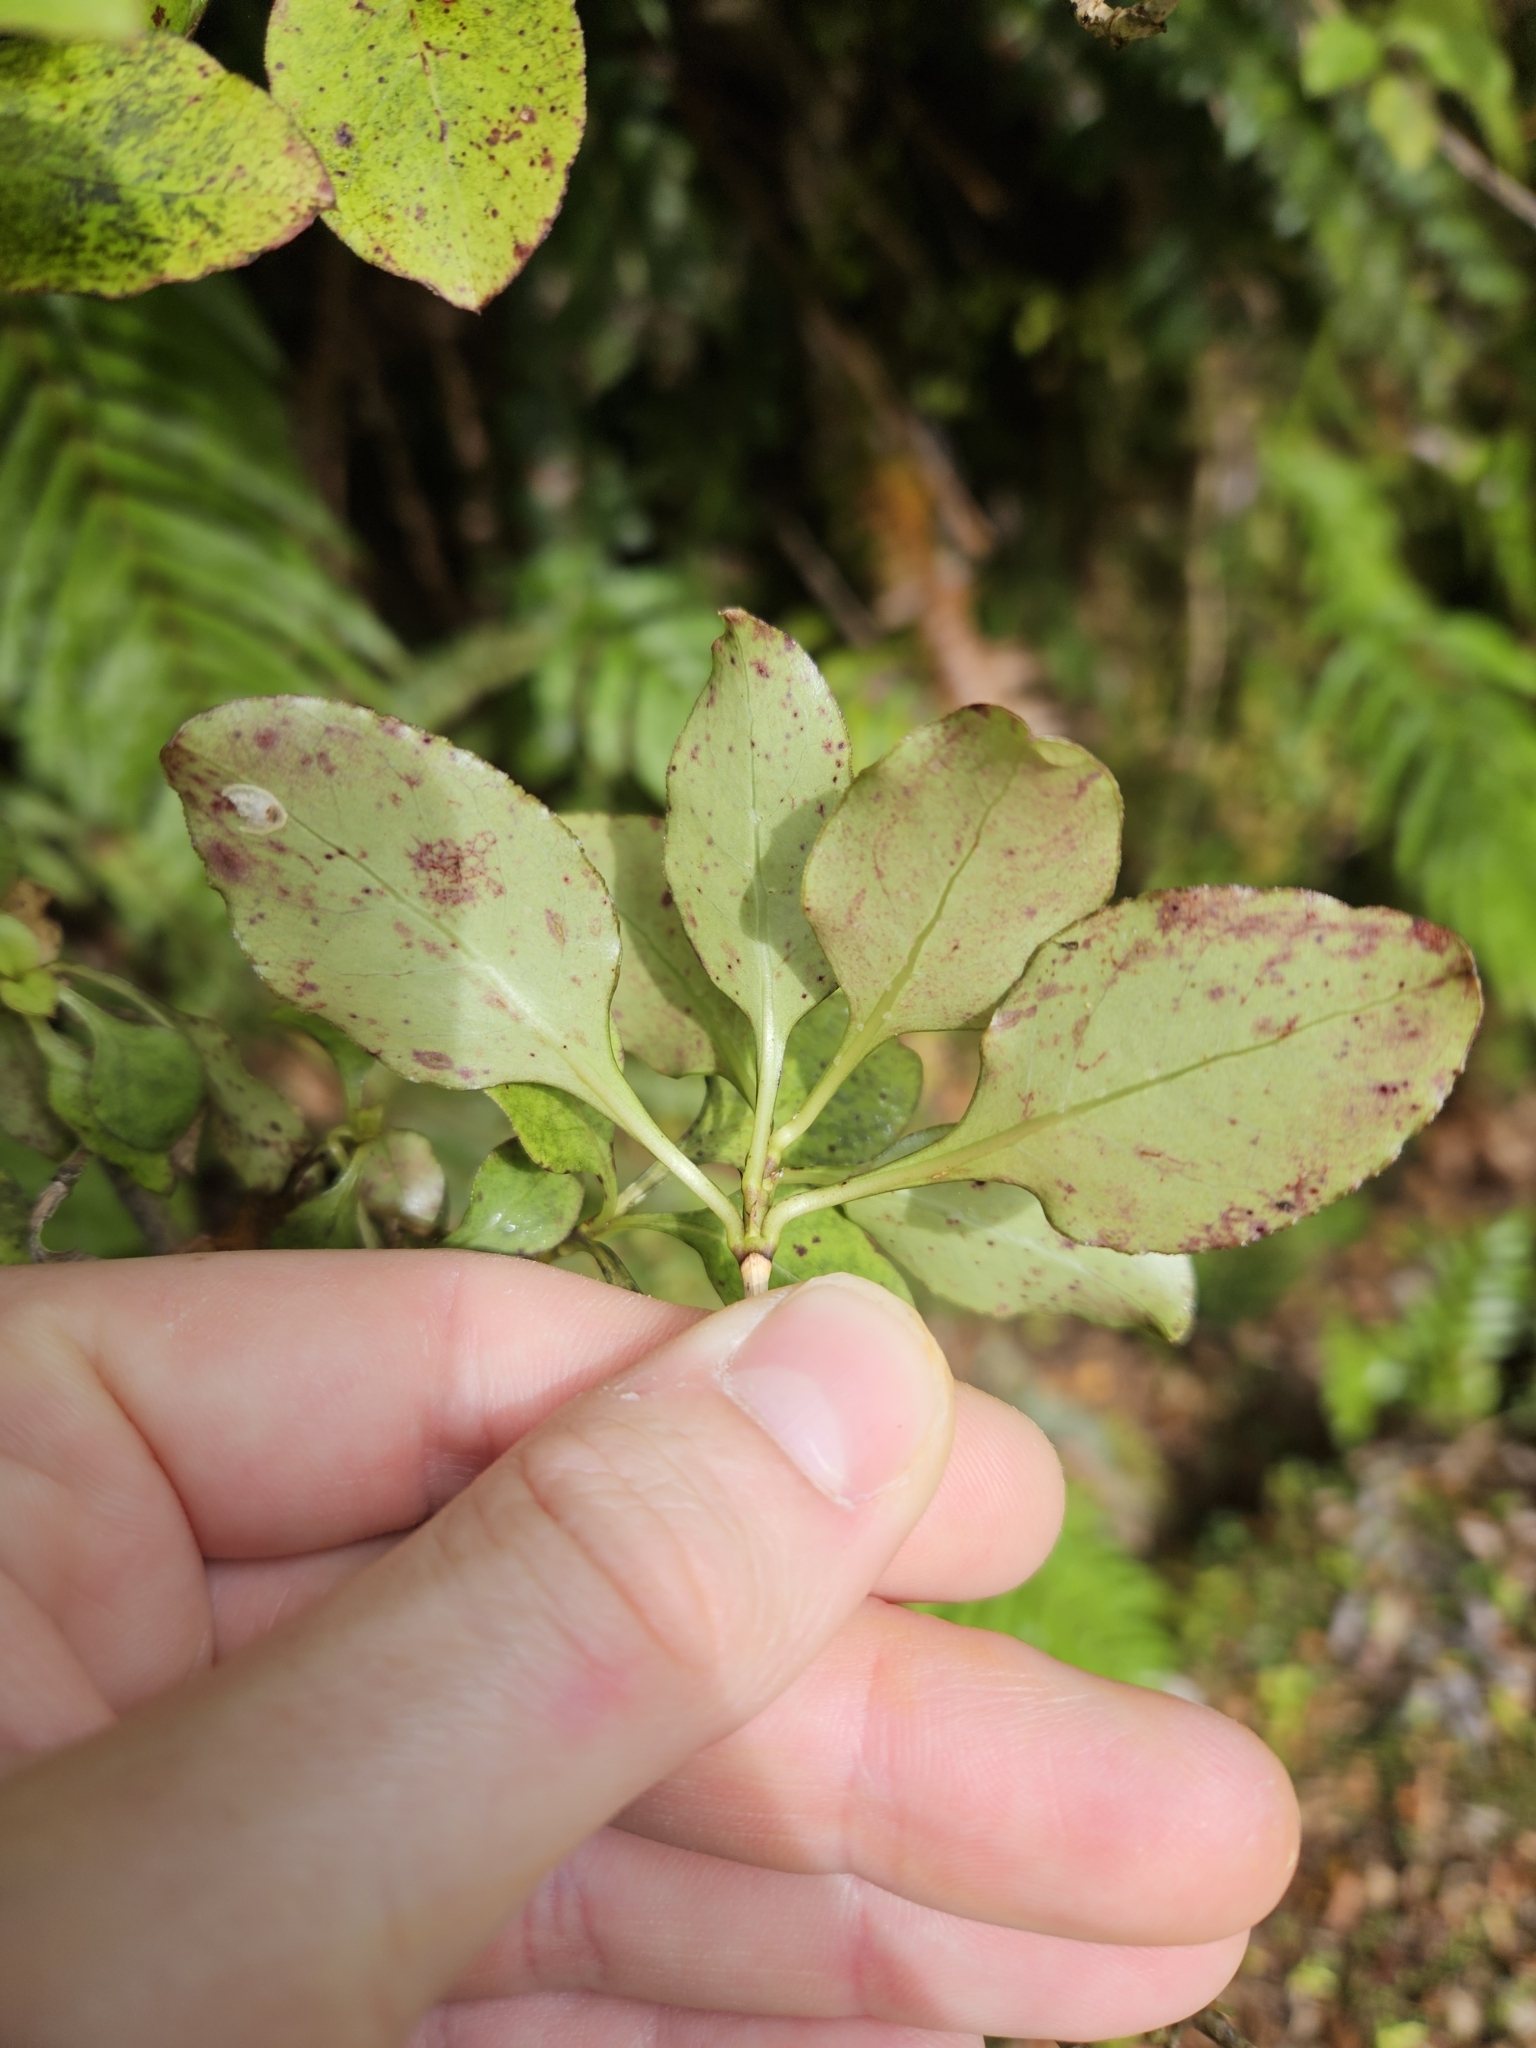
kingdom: Plantae
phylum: Tracheophyta
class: Magnoliopsida
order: Gentianales
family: Rubiaceae
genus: Coprosma
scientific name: Coprosma foetidissima
